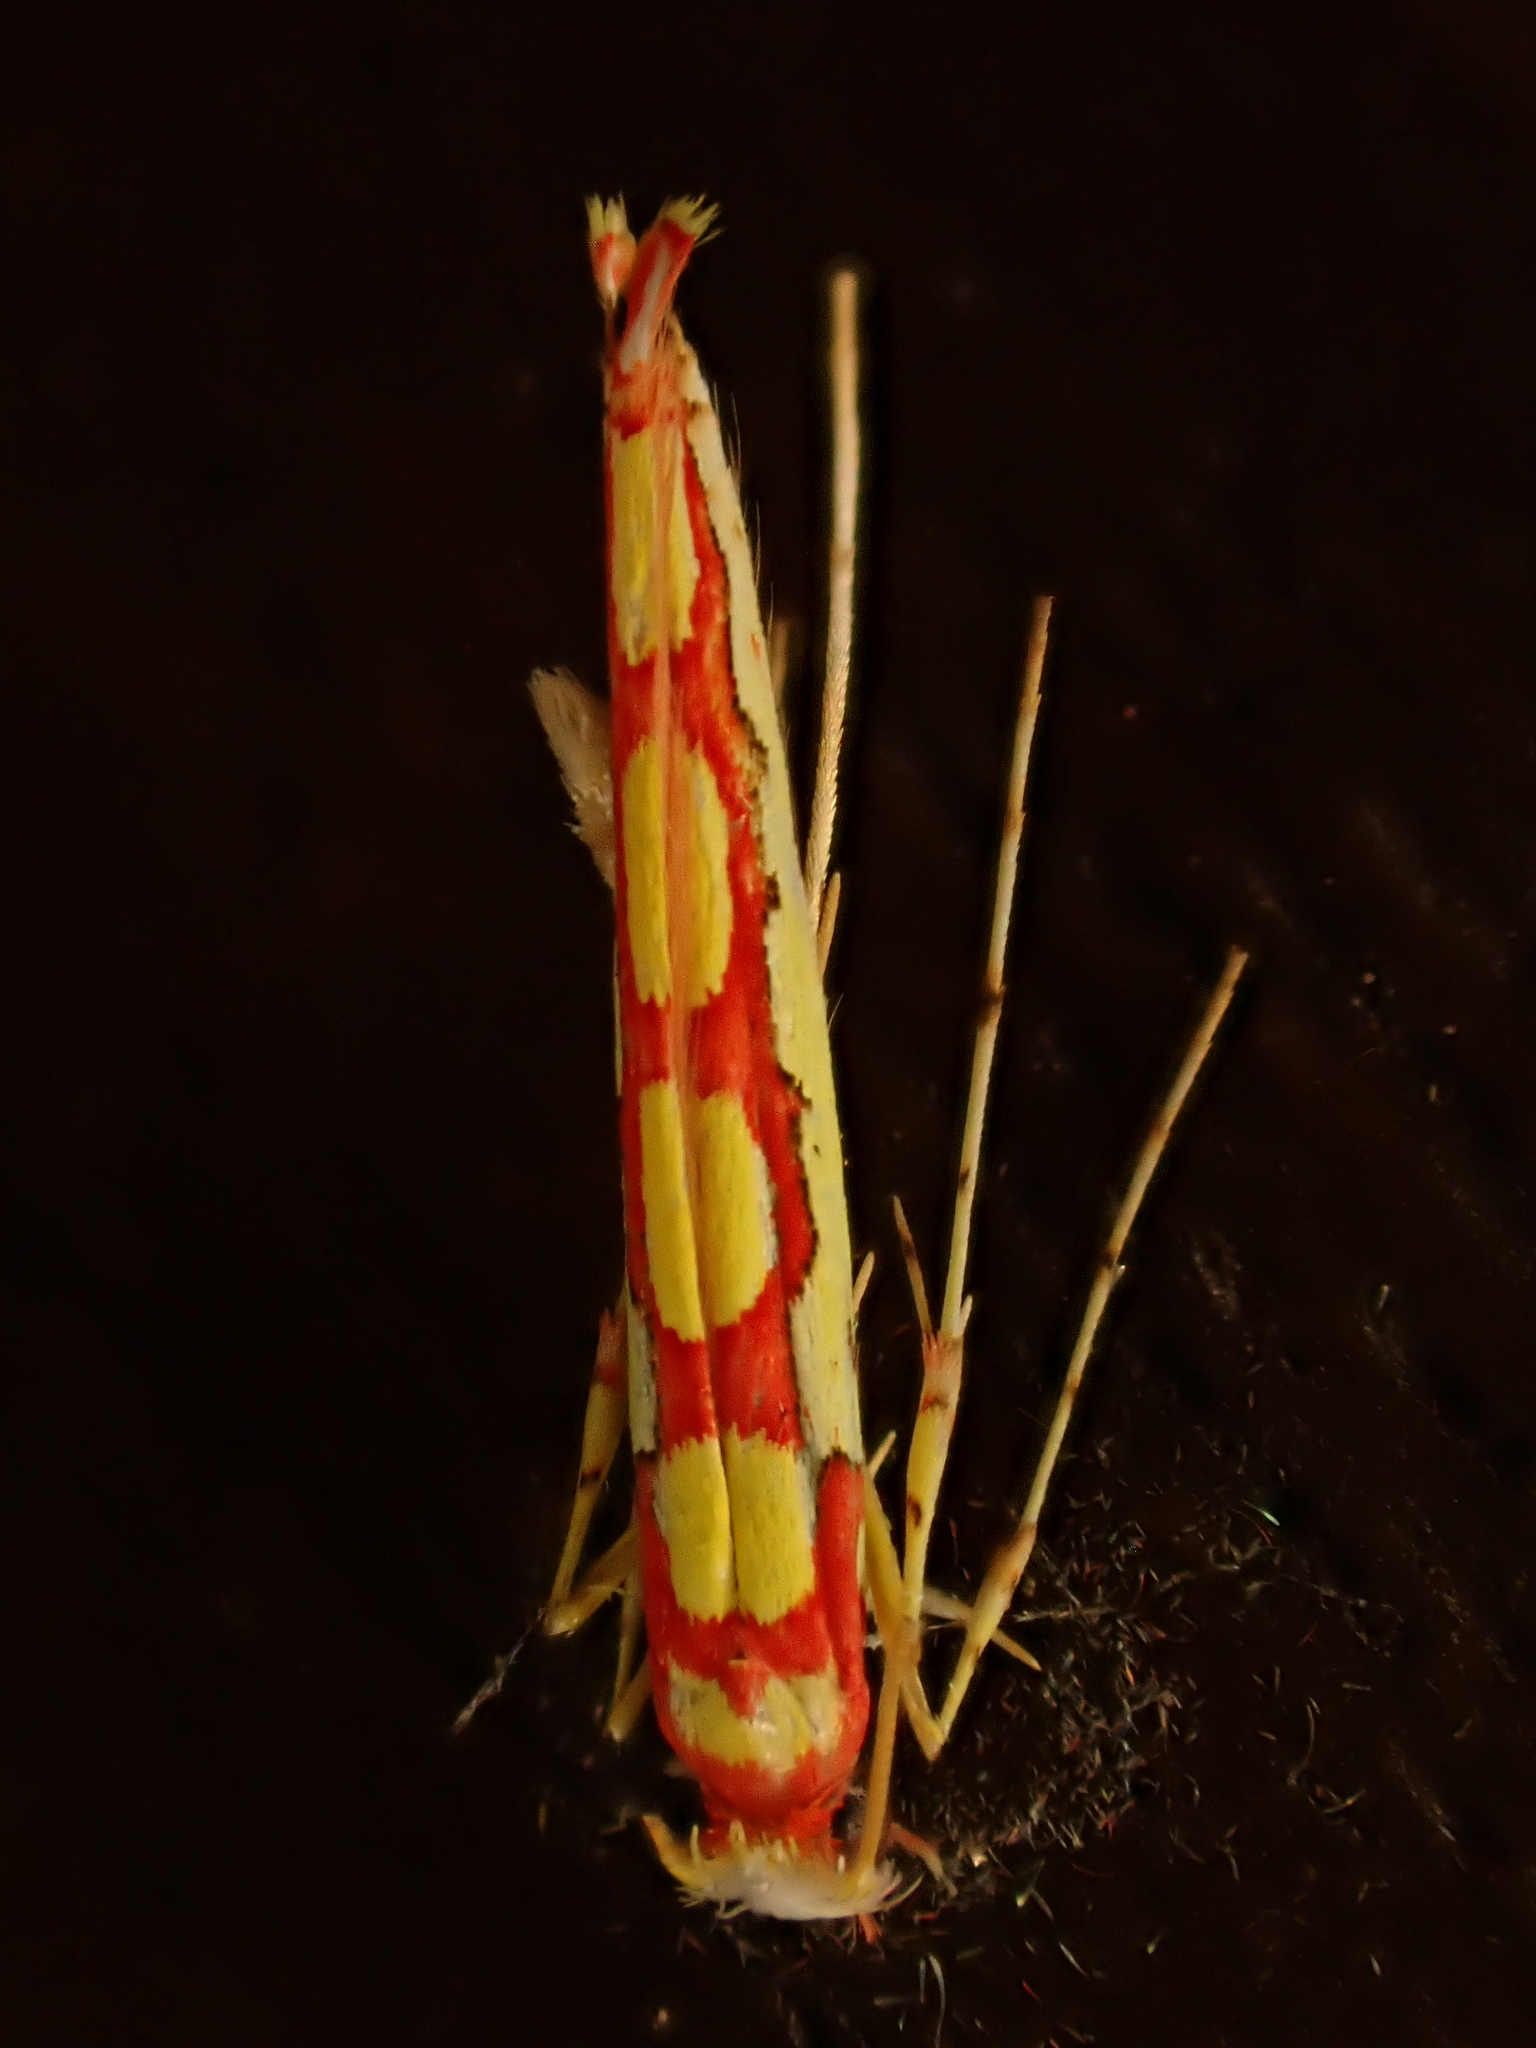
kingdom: Animalia
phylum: Arthropoda
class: Insecta
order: Lepidoptera
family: Gracillariidae
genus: Macarostola
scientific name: Macarostola miniella
